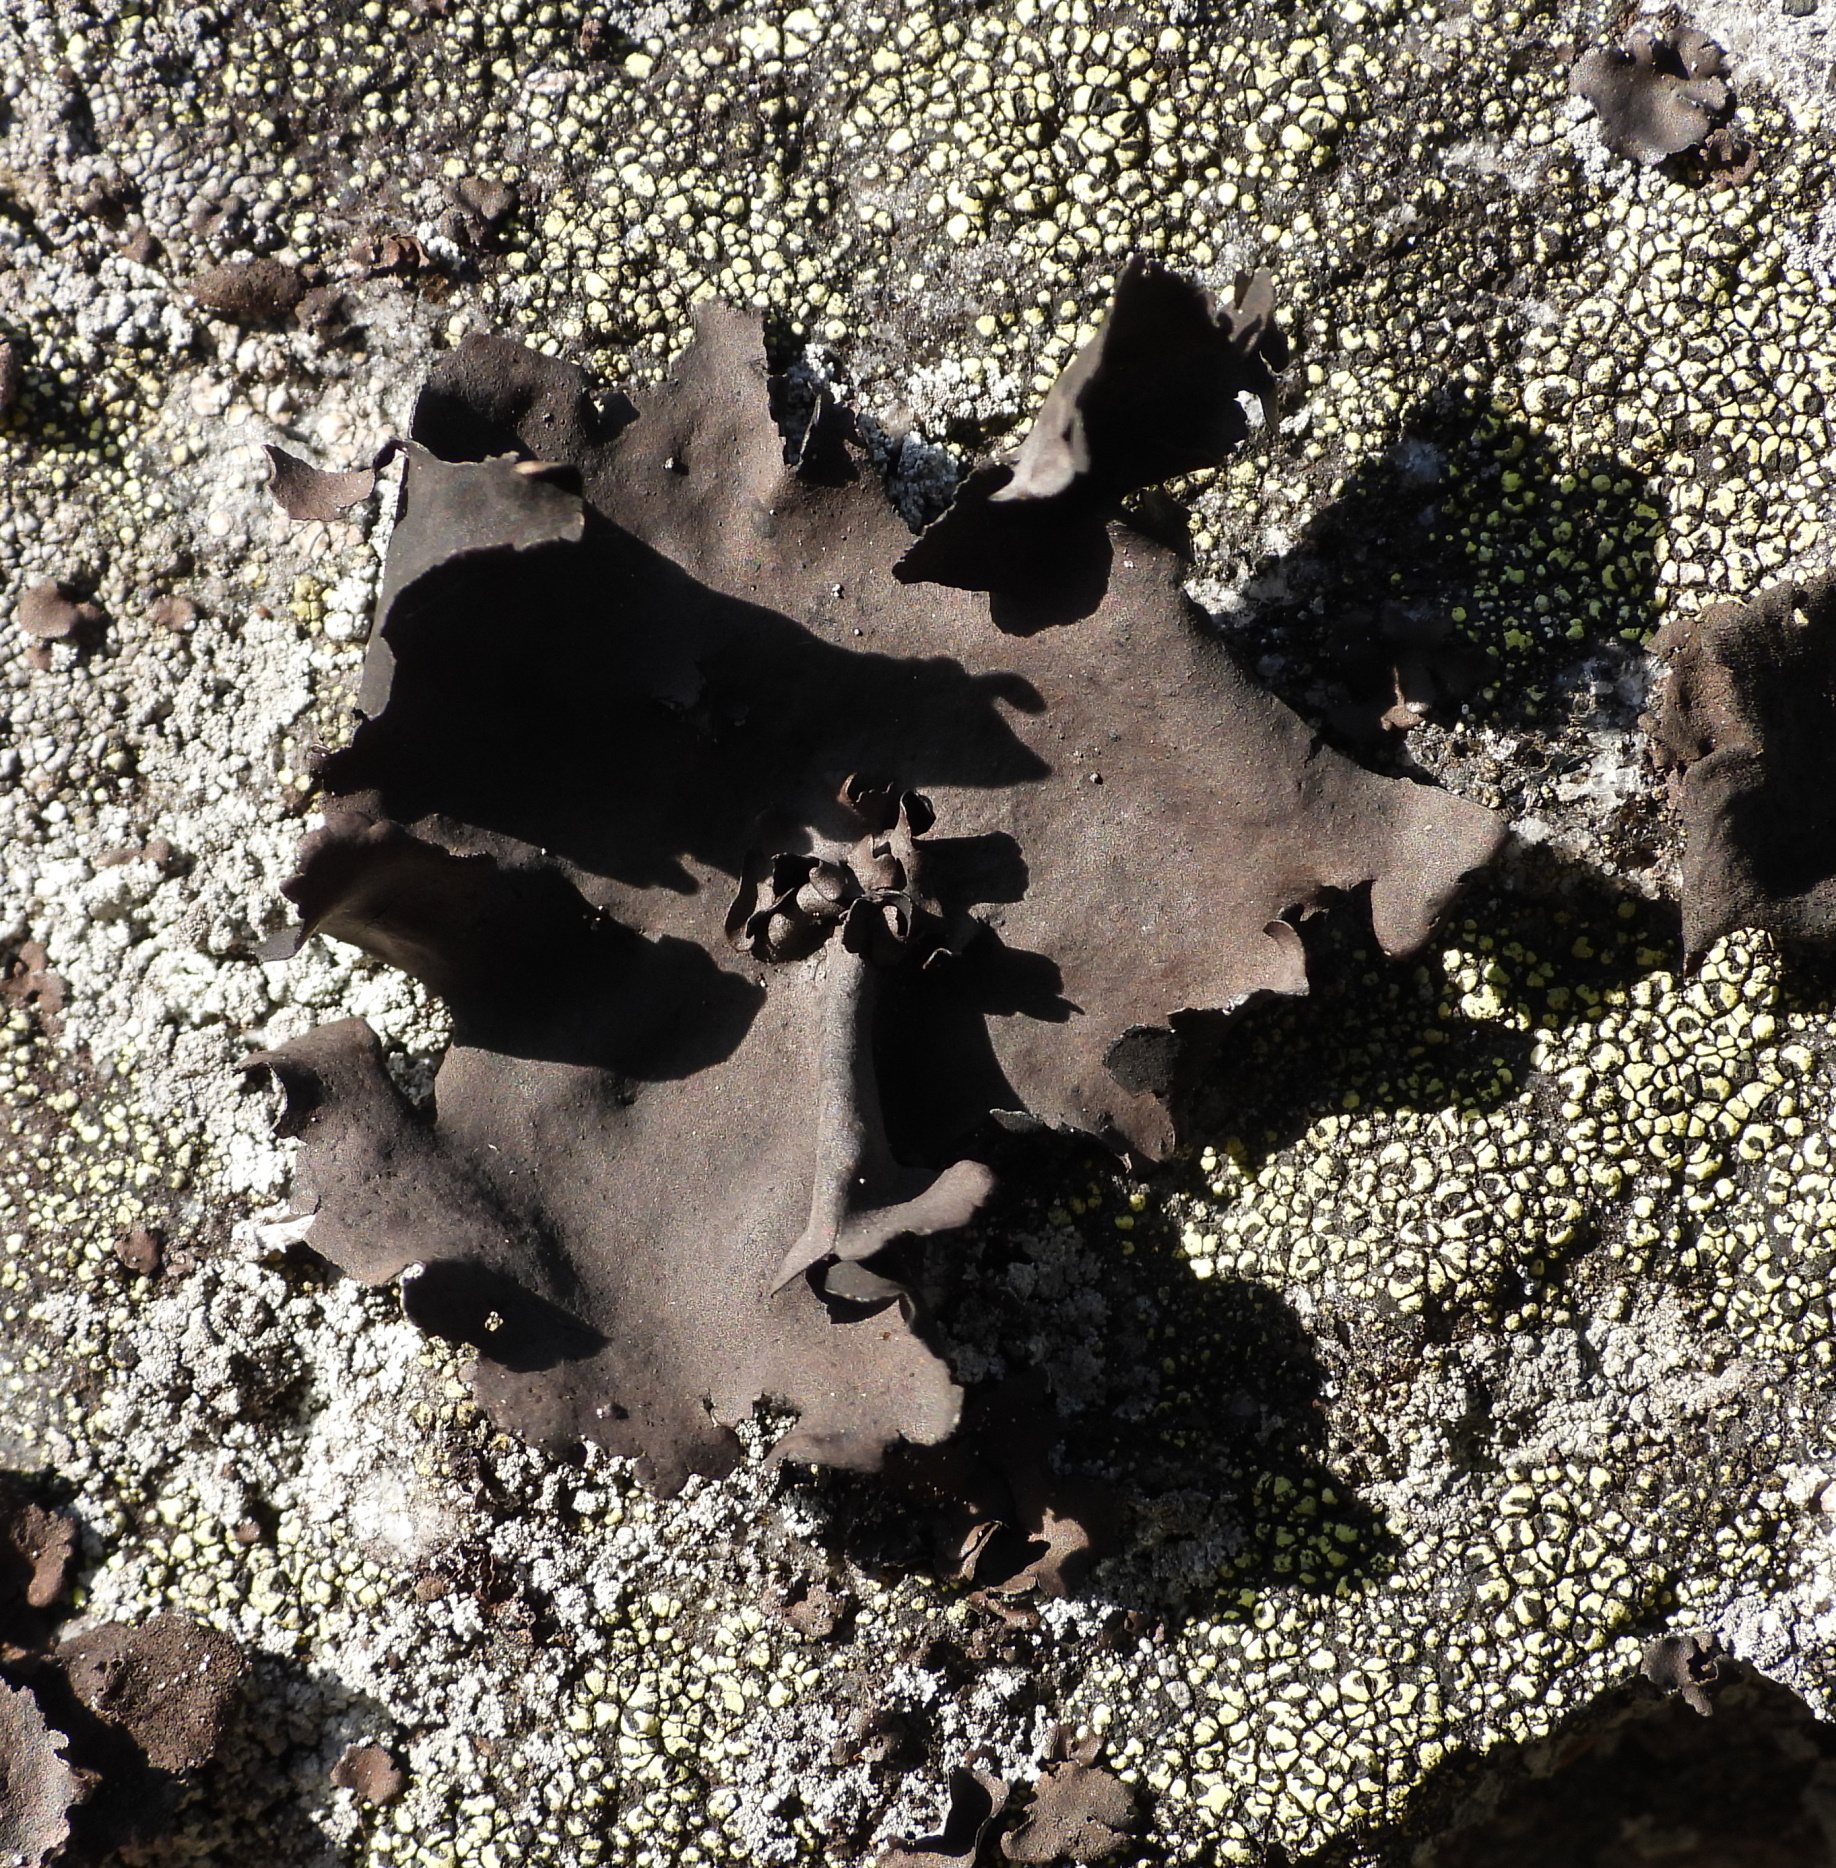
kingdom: Fungi
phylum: Ascomycota
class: Lecanoromycetes
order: Umbilicariales
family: Umbilicariaceae
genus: Umbilicaria
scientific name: Umbilicaria polyphylla
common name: Petalled rocktripe lichen
